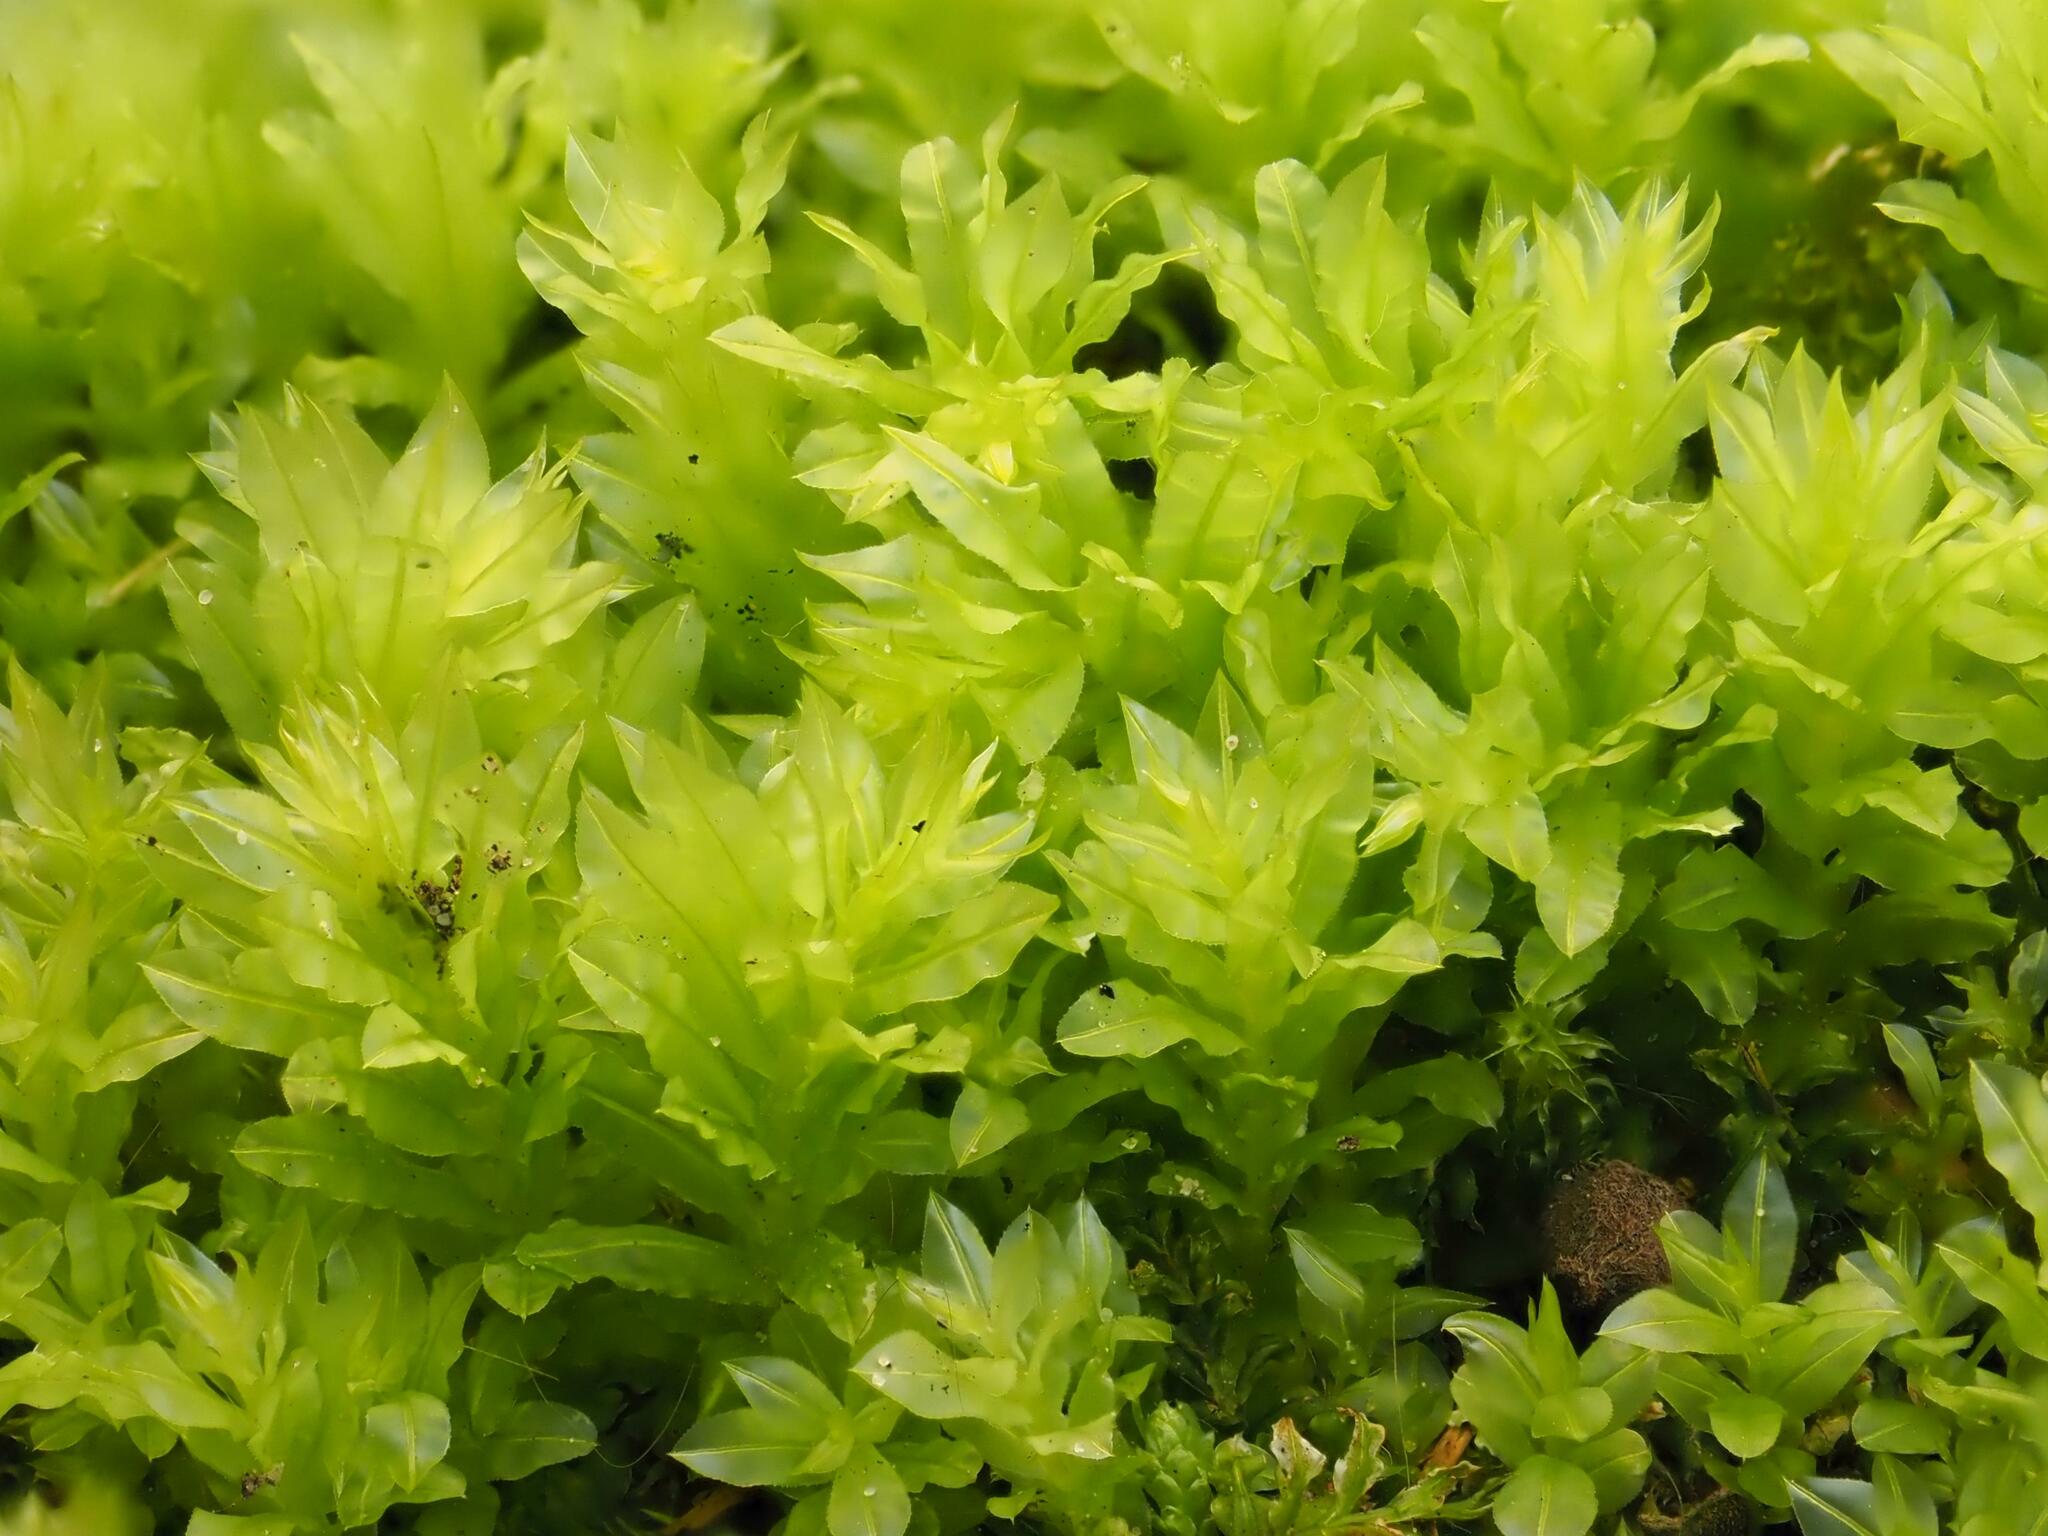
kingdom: Plantae
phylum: Bryophyta
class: Bryopsida
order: Bryales
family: Mniaceae
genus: Plagiomnium
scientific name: Plagiomnium undulatum
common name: Hart's-tongue thyme-moss
